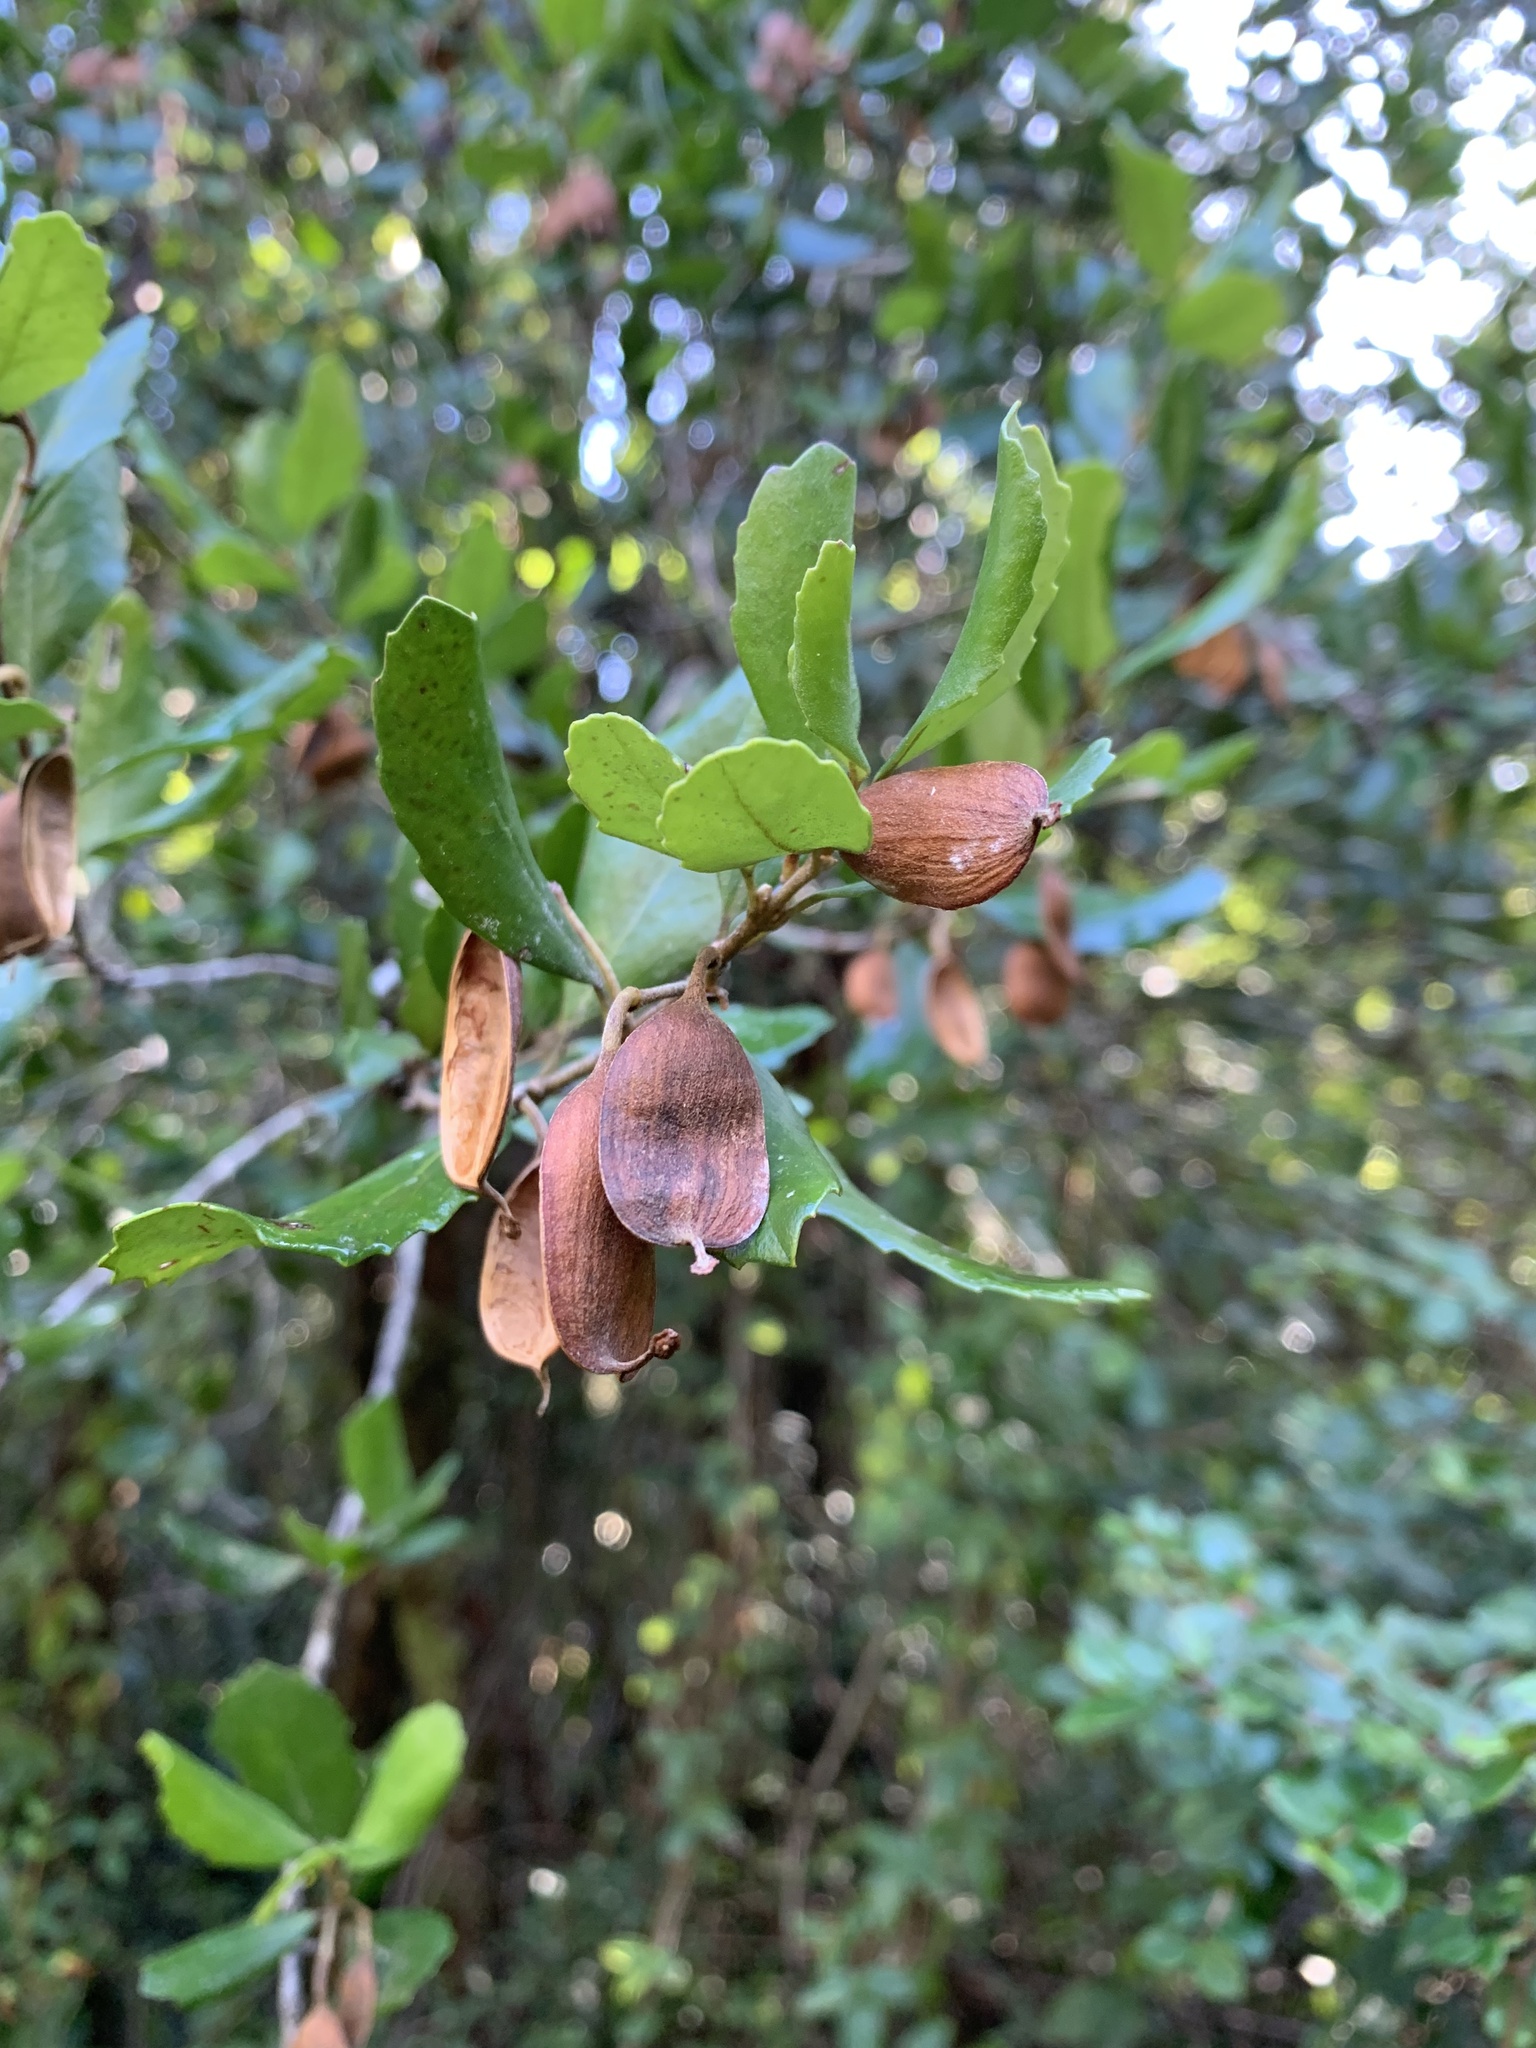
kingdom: Plantae
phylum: Tracheophyta
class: Magnoliopsida
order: Proteales
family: Proteaceae
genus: Lomatia
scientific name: Lomatia dentata
